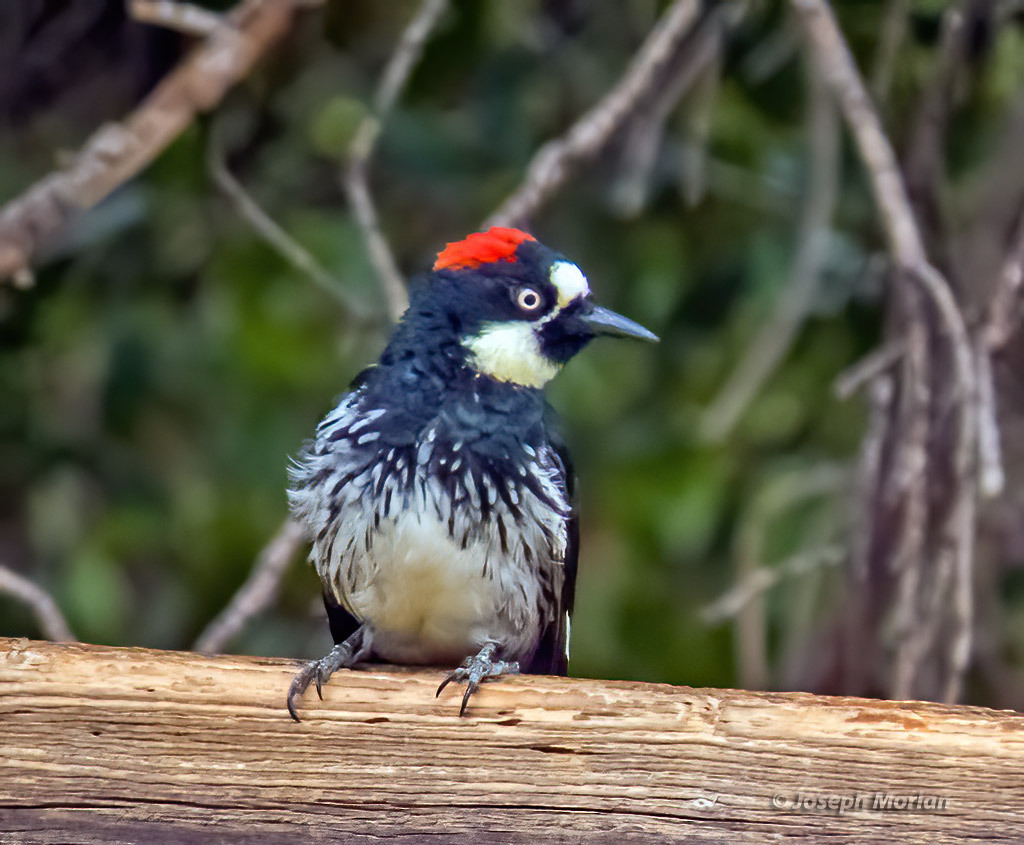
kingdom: Animalia
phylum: Chordata
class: Aves
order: Piciformes
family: Picidae
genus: Melanerpes
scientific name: Melanerpes formicivorus
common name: Acorn woodpecker
